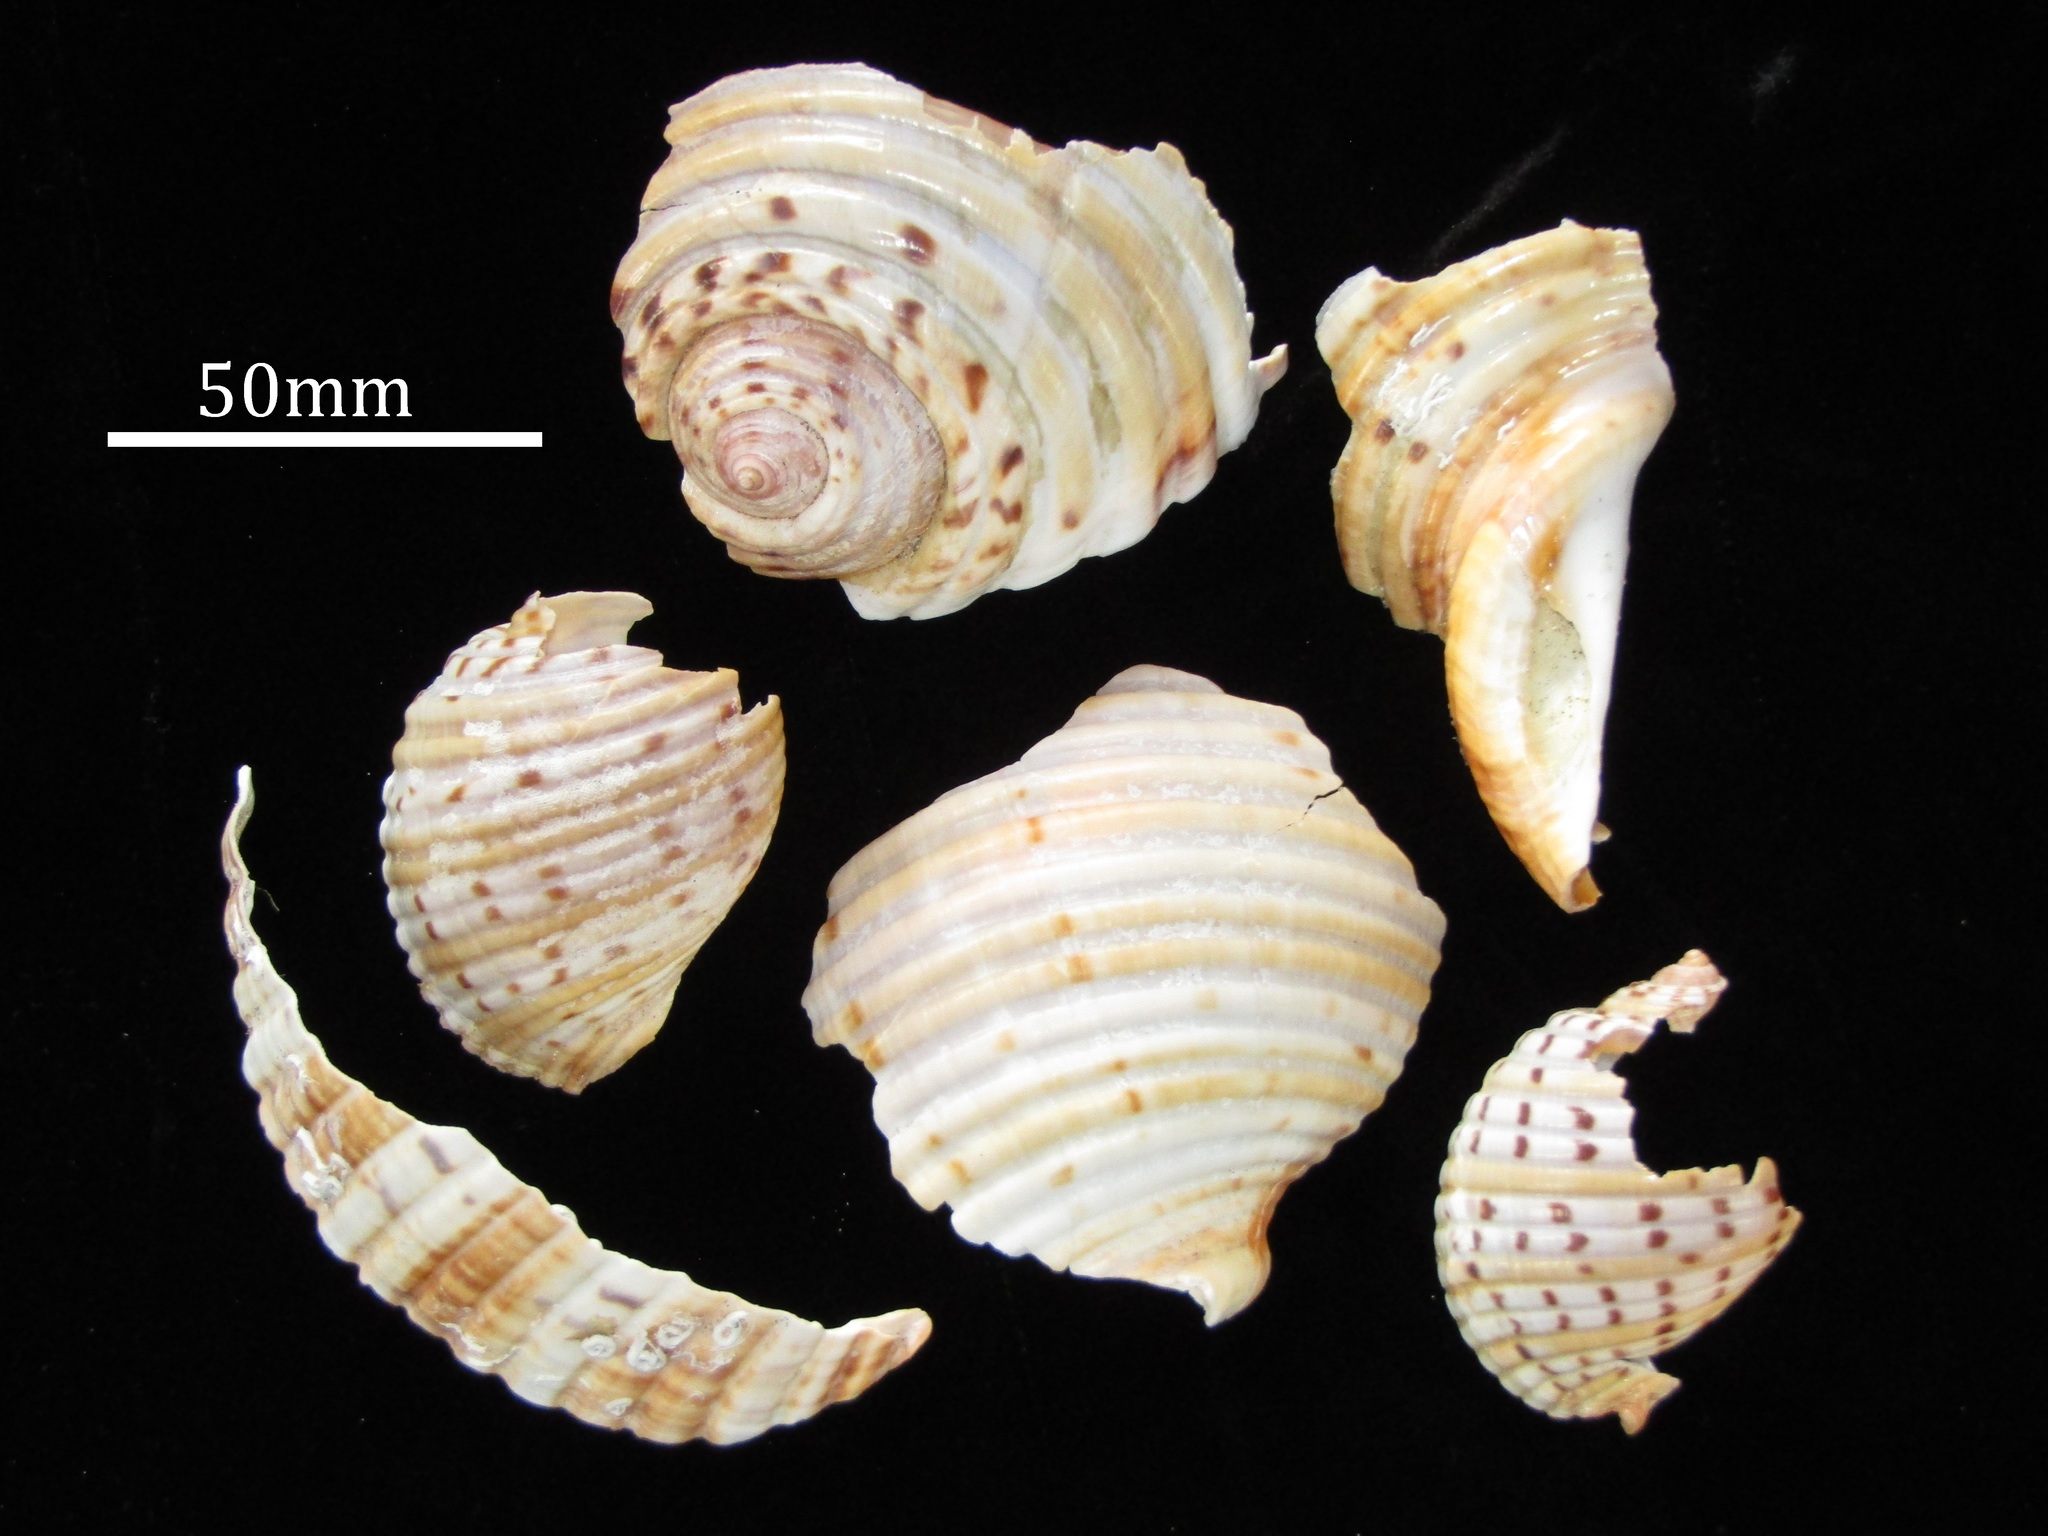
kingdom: Animalia
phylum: Mollusca
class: Gastropoda
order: Littorinimorpha
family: Tonnidae
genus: Tonna
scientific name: Tonna tankervillii
